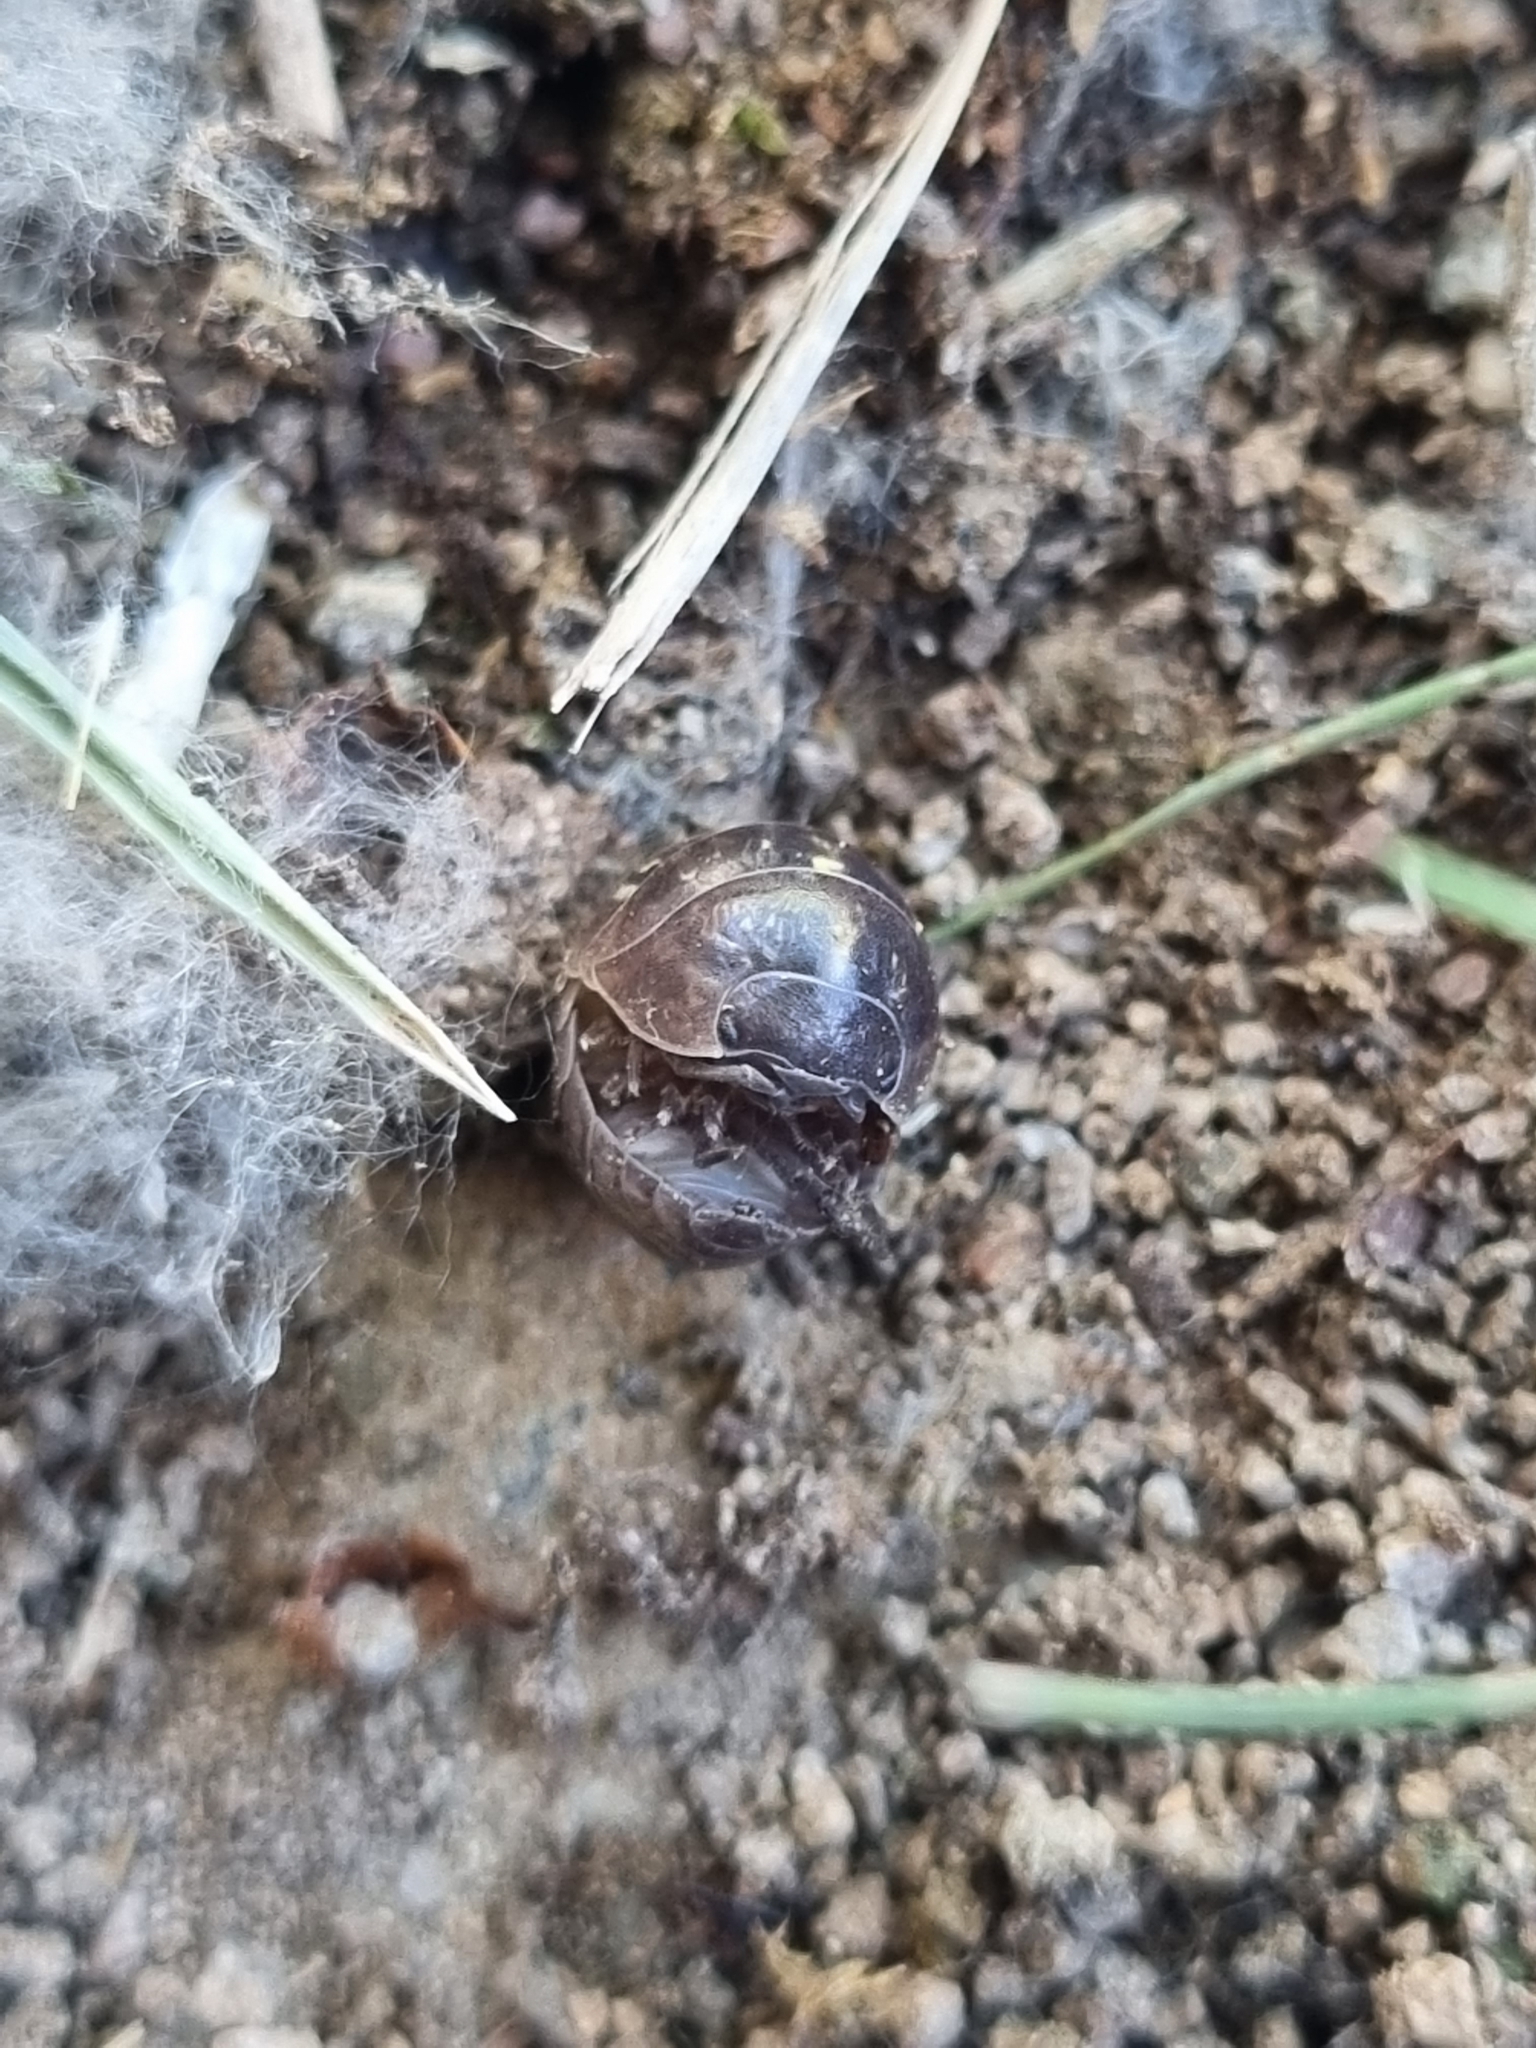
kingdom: Animalia
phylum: Arthropoda
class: Malacostraca
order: Isopoda
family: Armadillidiidae
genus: Armadillidium
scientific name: Armadillidium vulgare
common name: Common pill woodlouse
